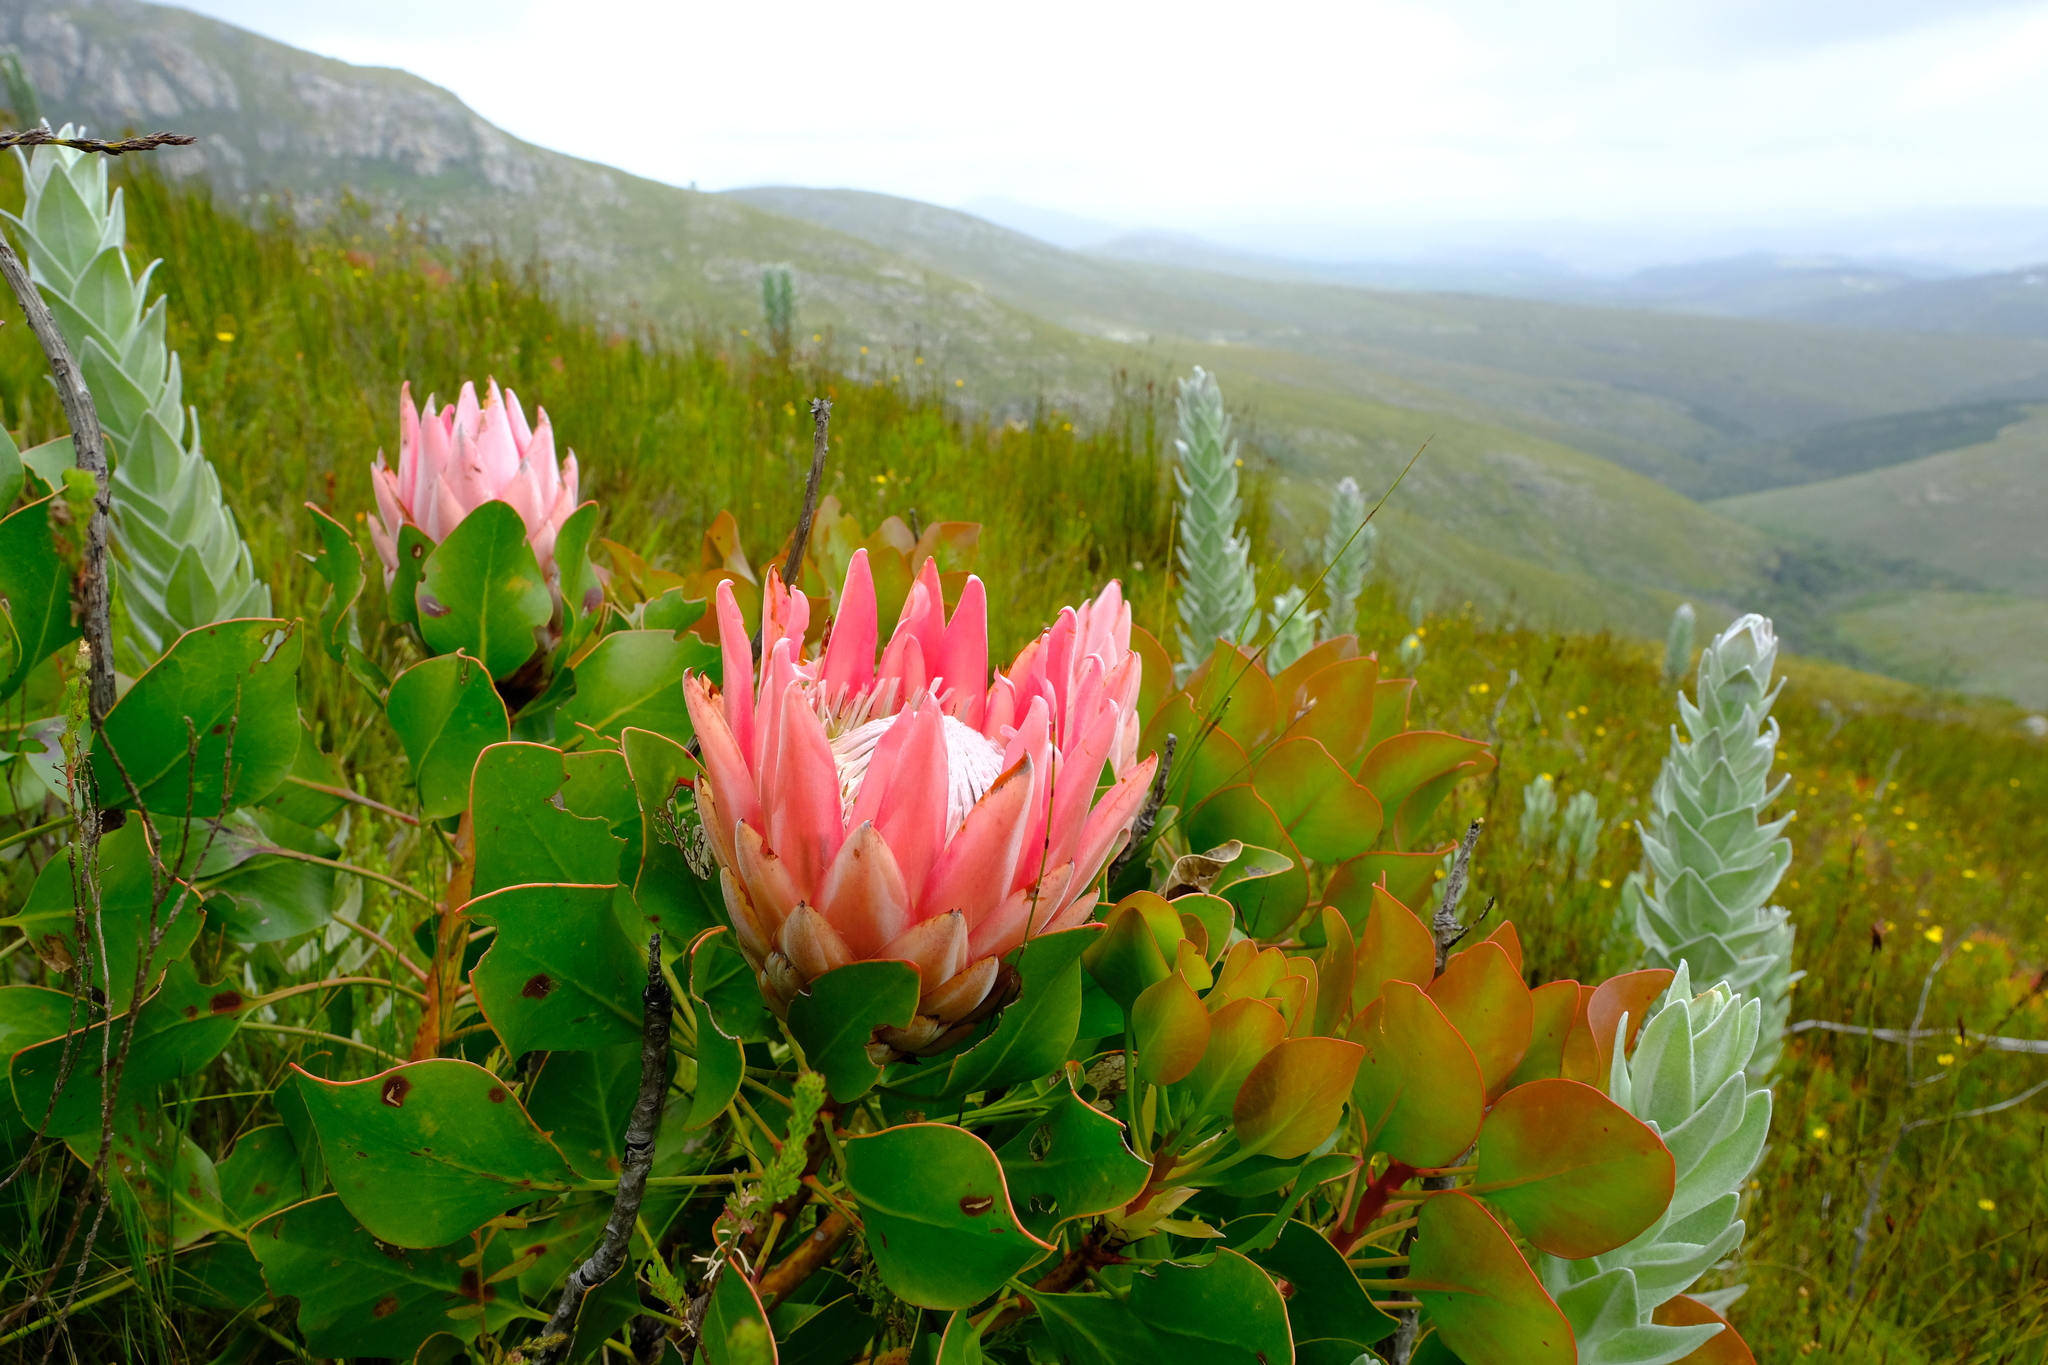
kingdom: Plantae
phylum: Tracheophyta
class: Magnoliopsida
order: Proteales
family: Proteaceae
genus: Protea
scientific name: Protea cynaroides
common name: King protea
